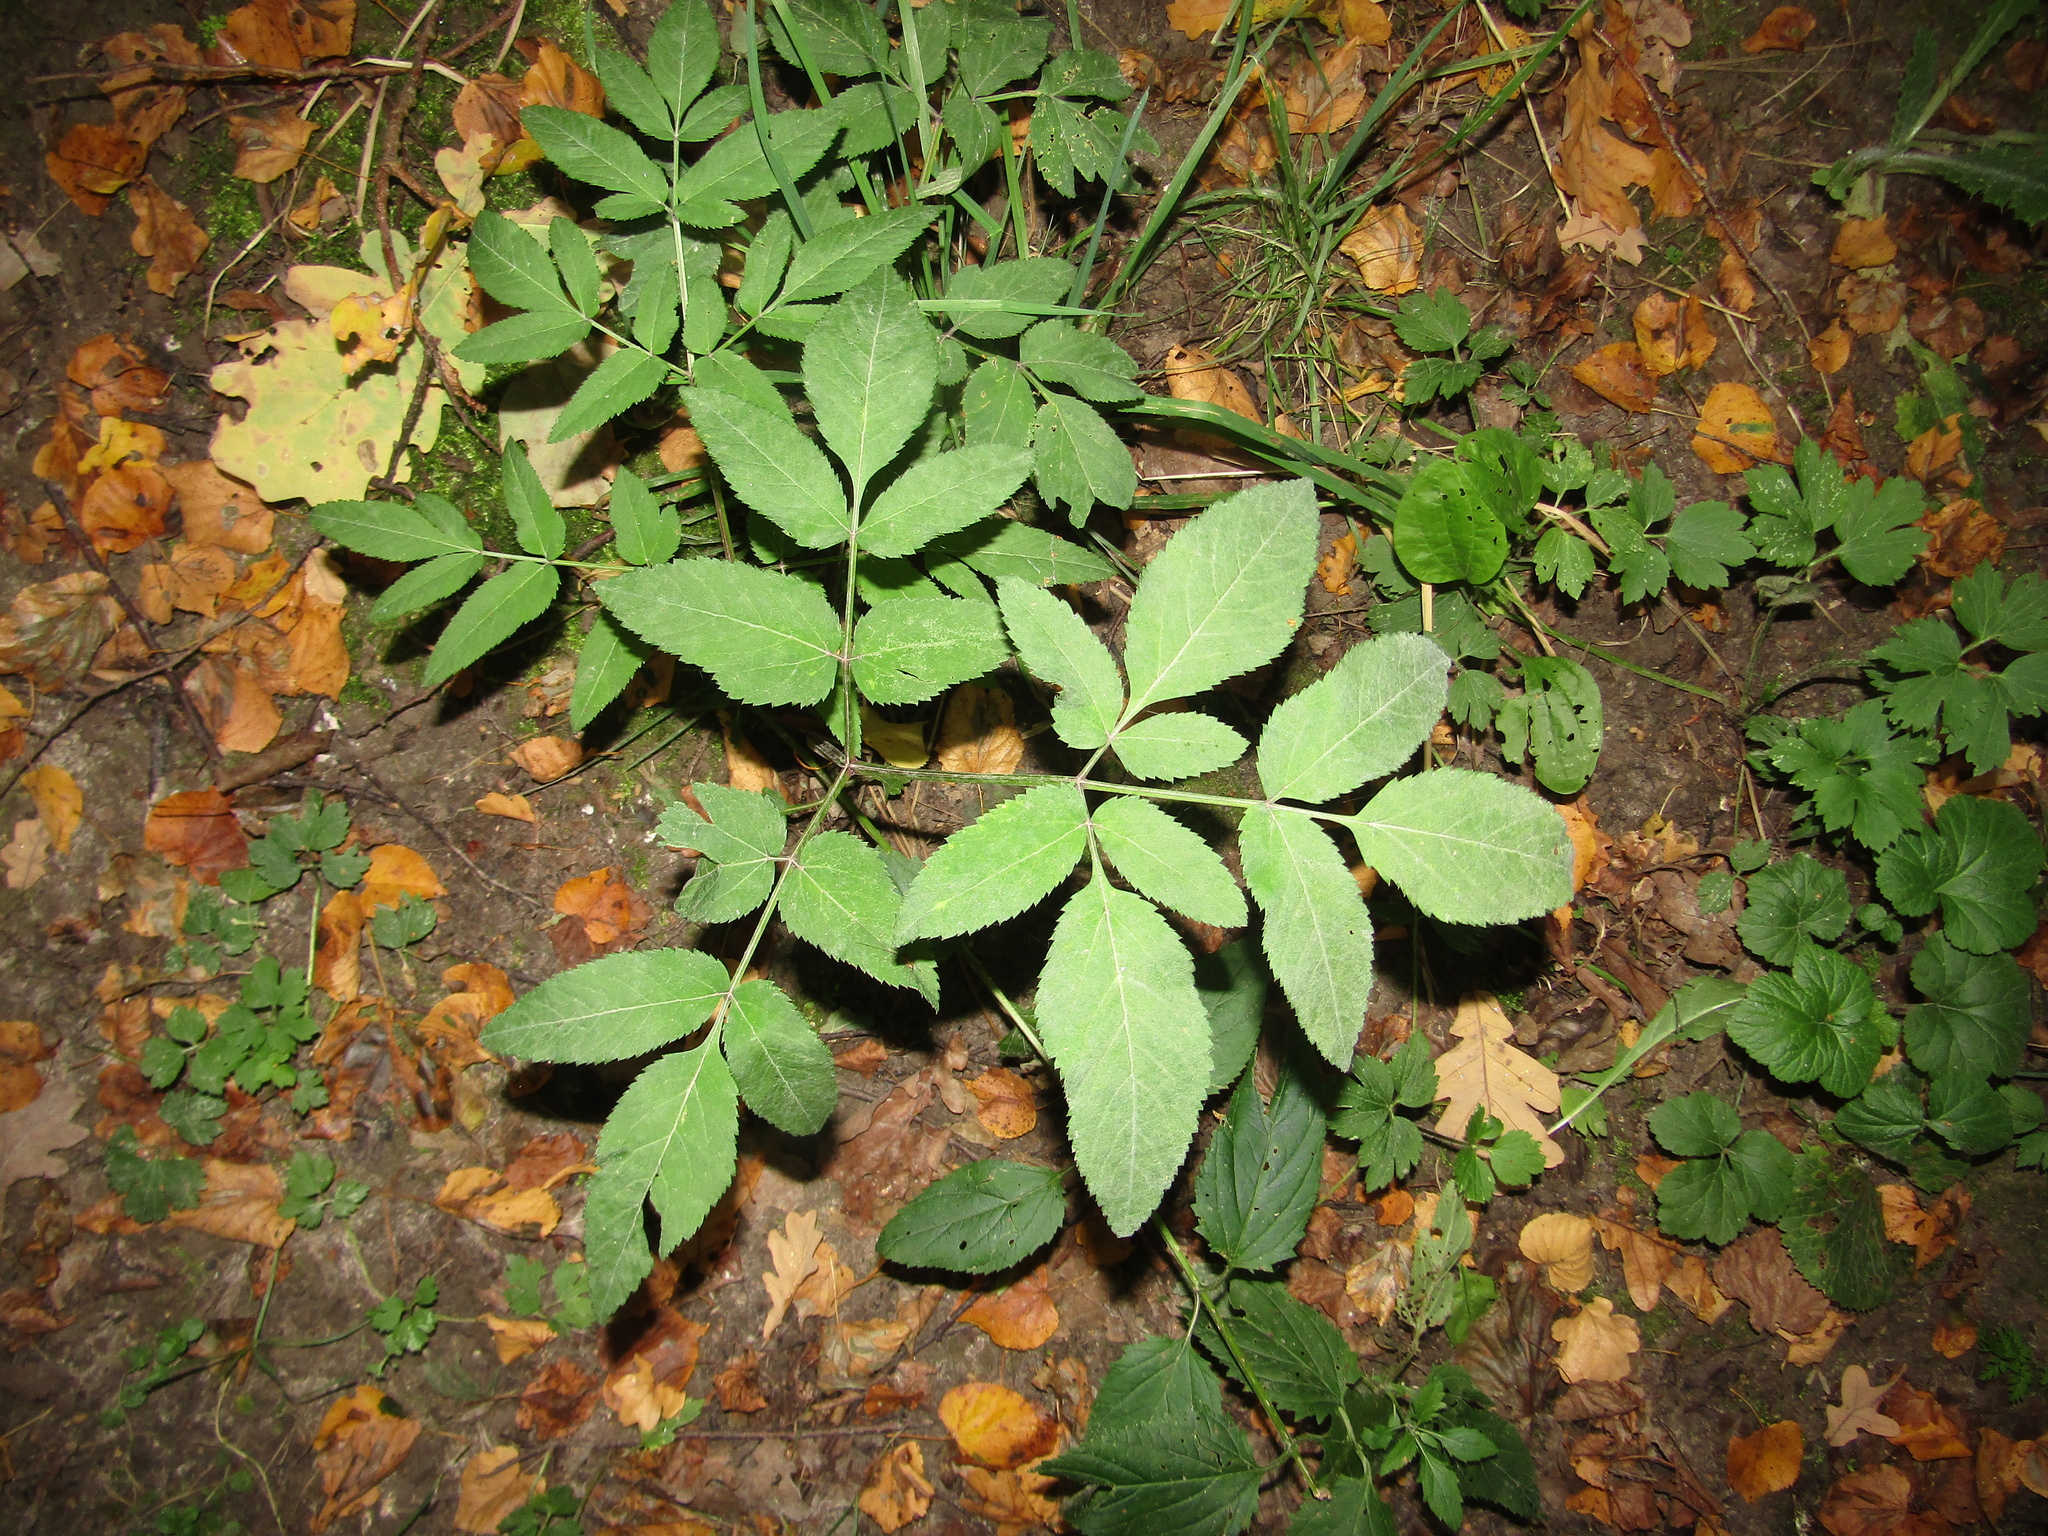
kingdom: Plantae
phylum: Tracheophyta
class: Magnoliopsida
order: Apiales
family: Apiaceae
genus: Angelica
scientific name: Angelica sylvestris
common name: Wild angelica
